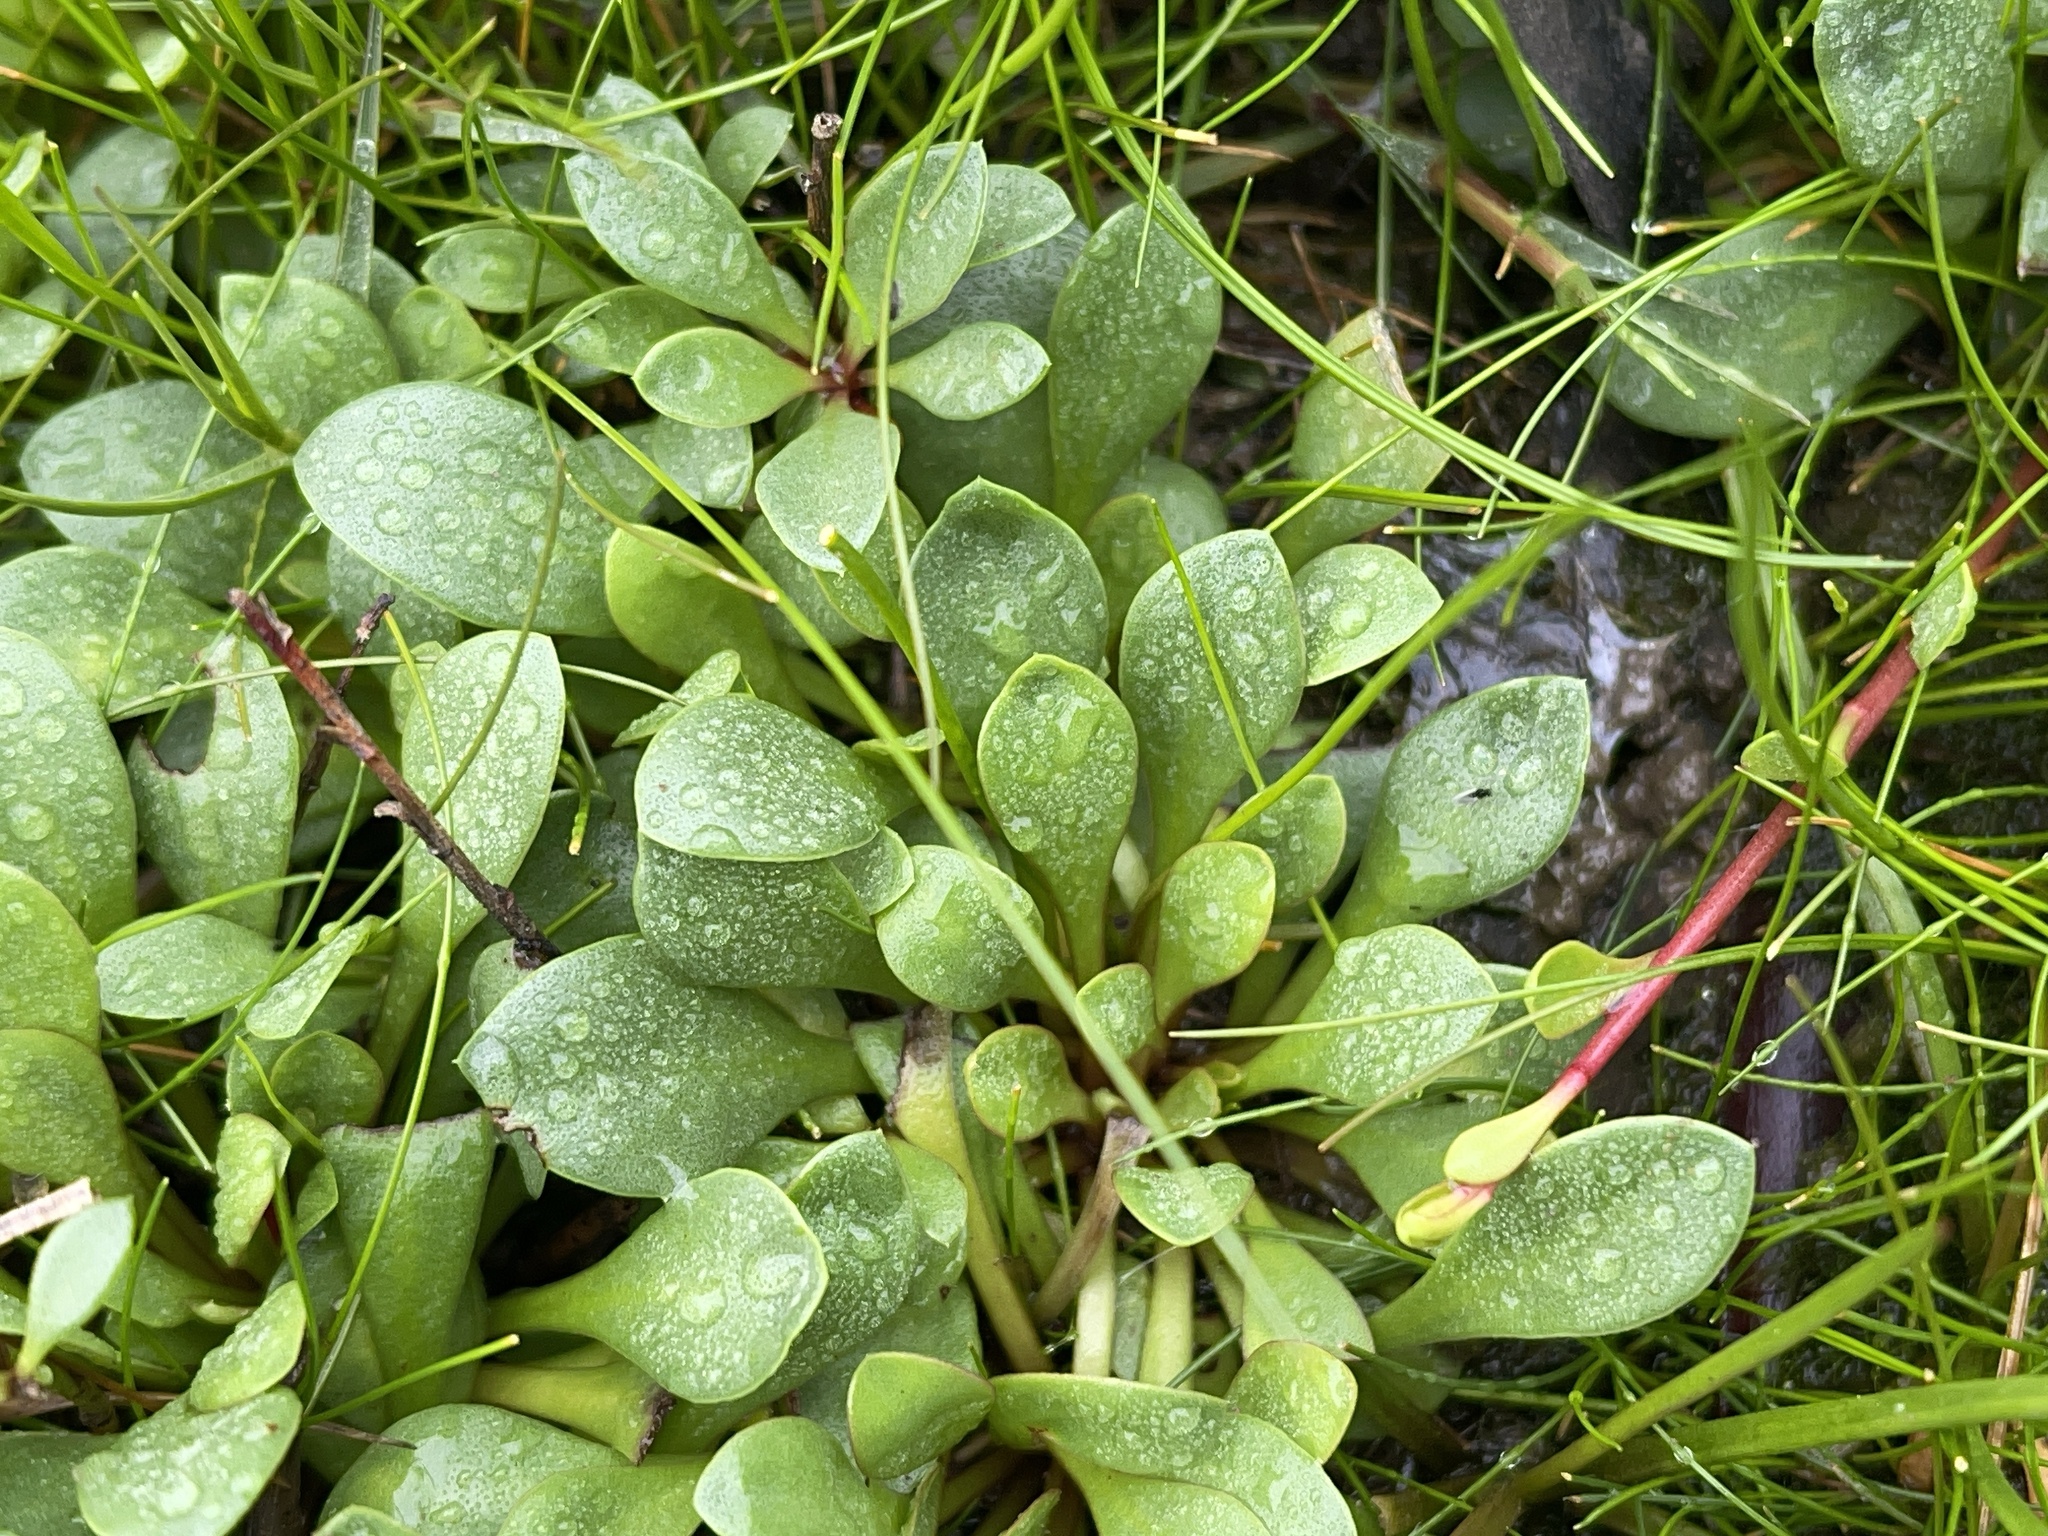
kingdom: Plantae
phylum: Tracheophyta
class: Magnoliopsida
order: Asterales
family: Goodeniaceae
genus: Goodenia
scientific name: Goodenia radicans
